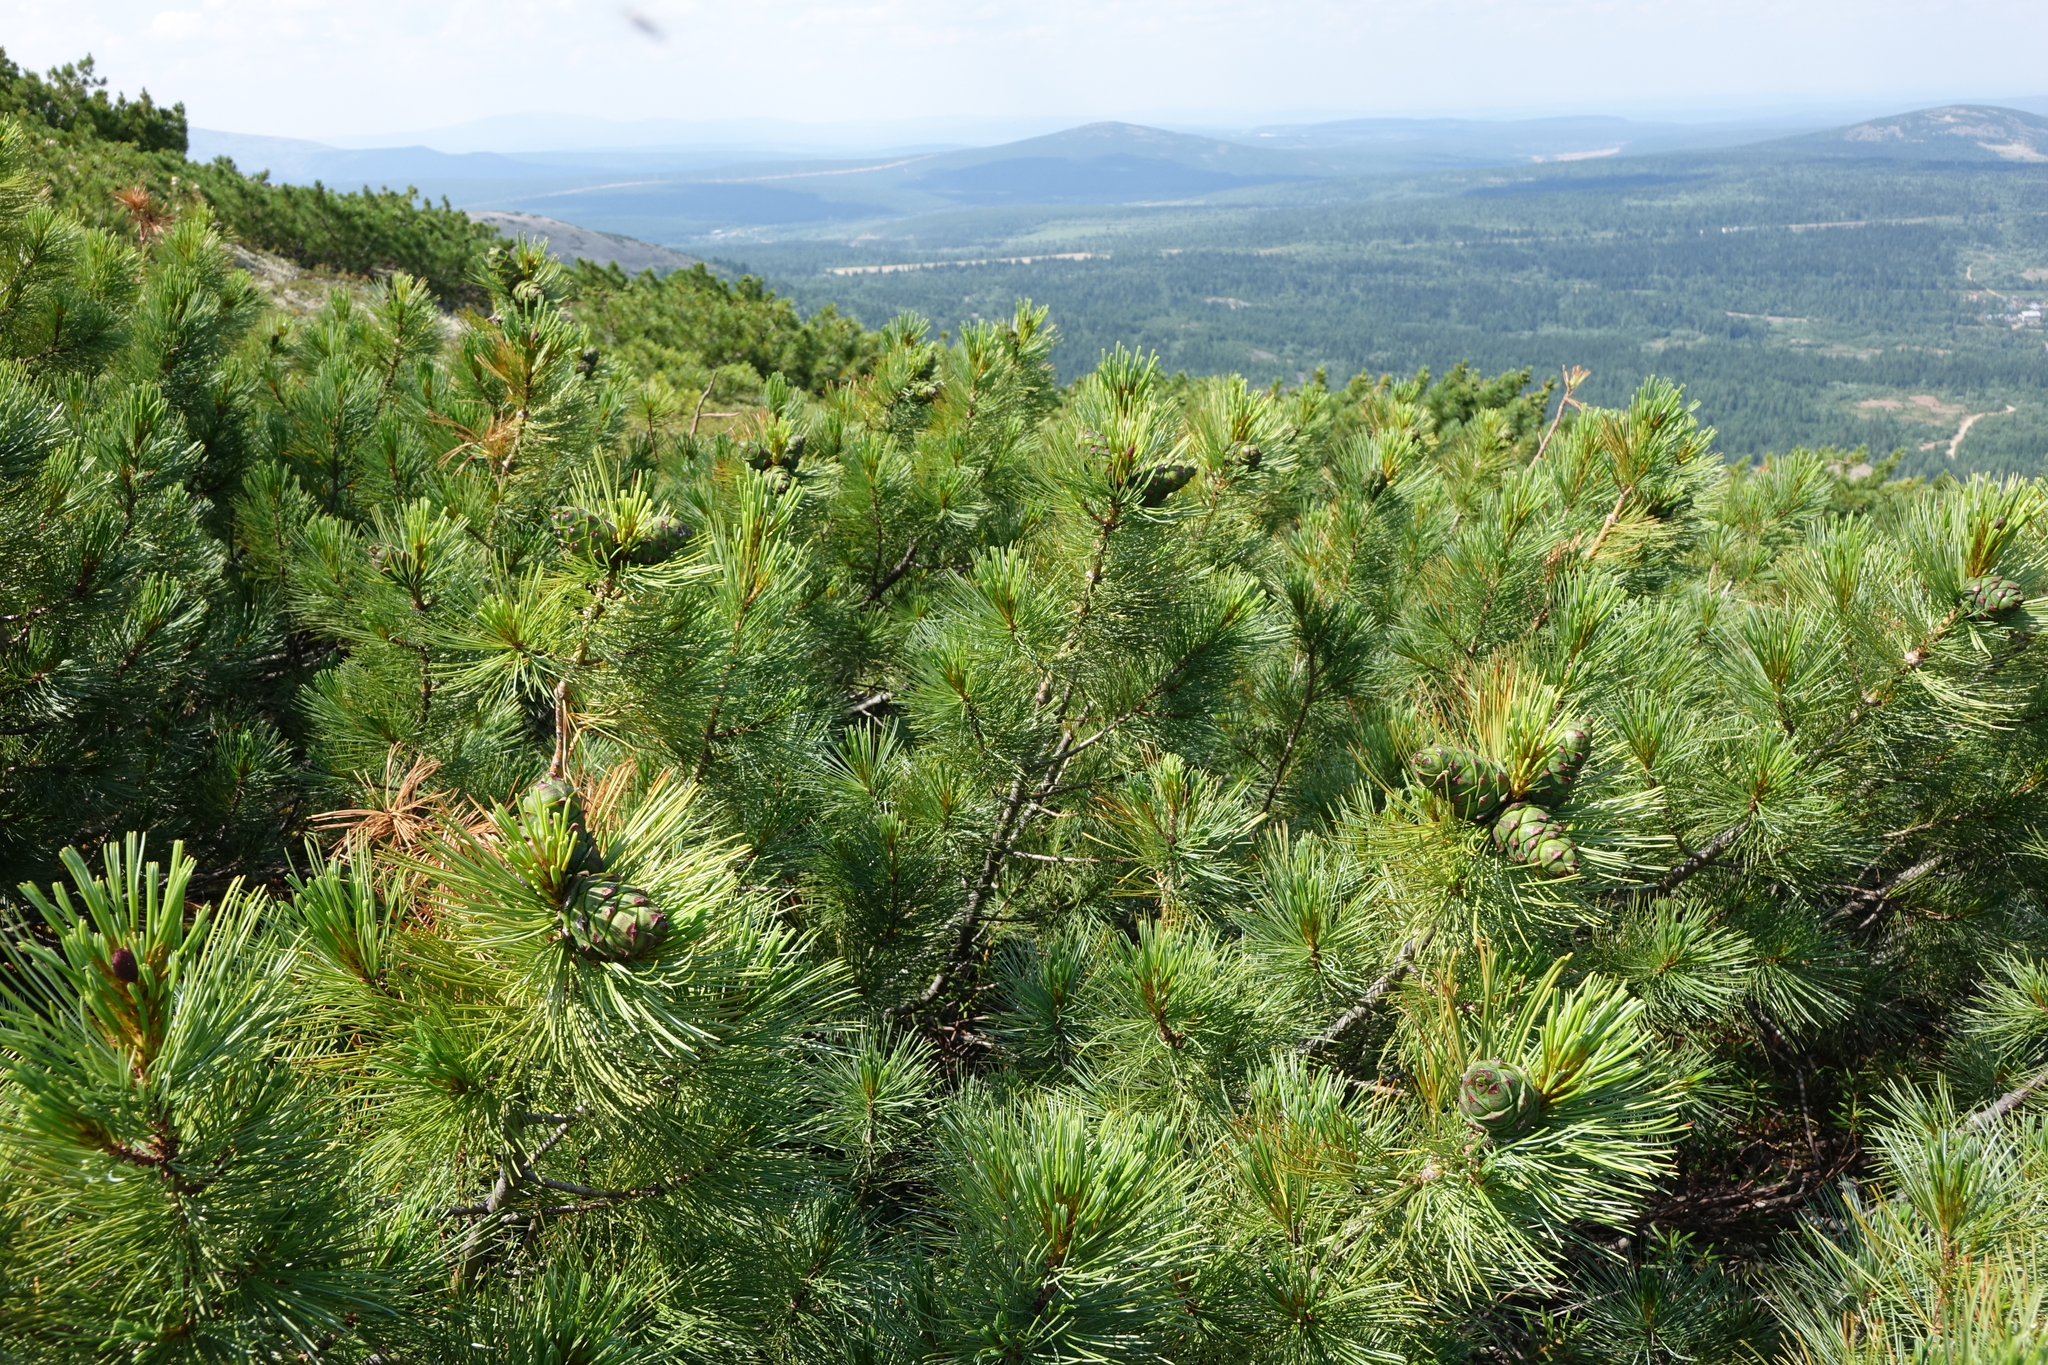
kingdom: Plantae
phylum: Tracheophyta
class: Pinopsida
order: Pinales
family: Pinaceae
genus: Pinus
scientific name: Pinus pumila
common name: Dwarf siberian pine
